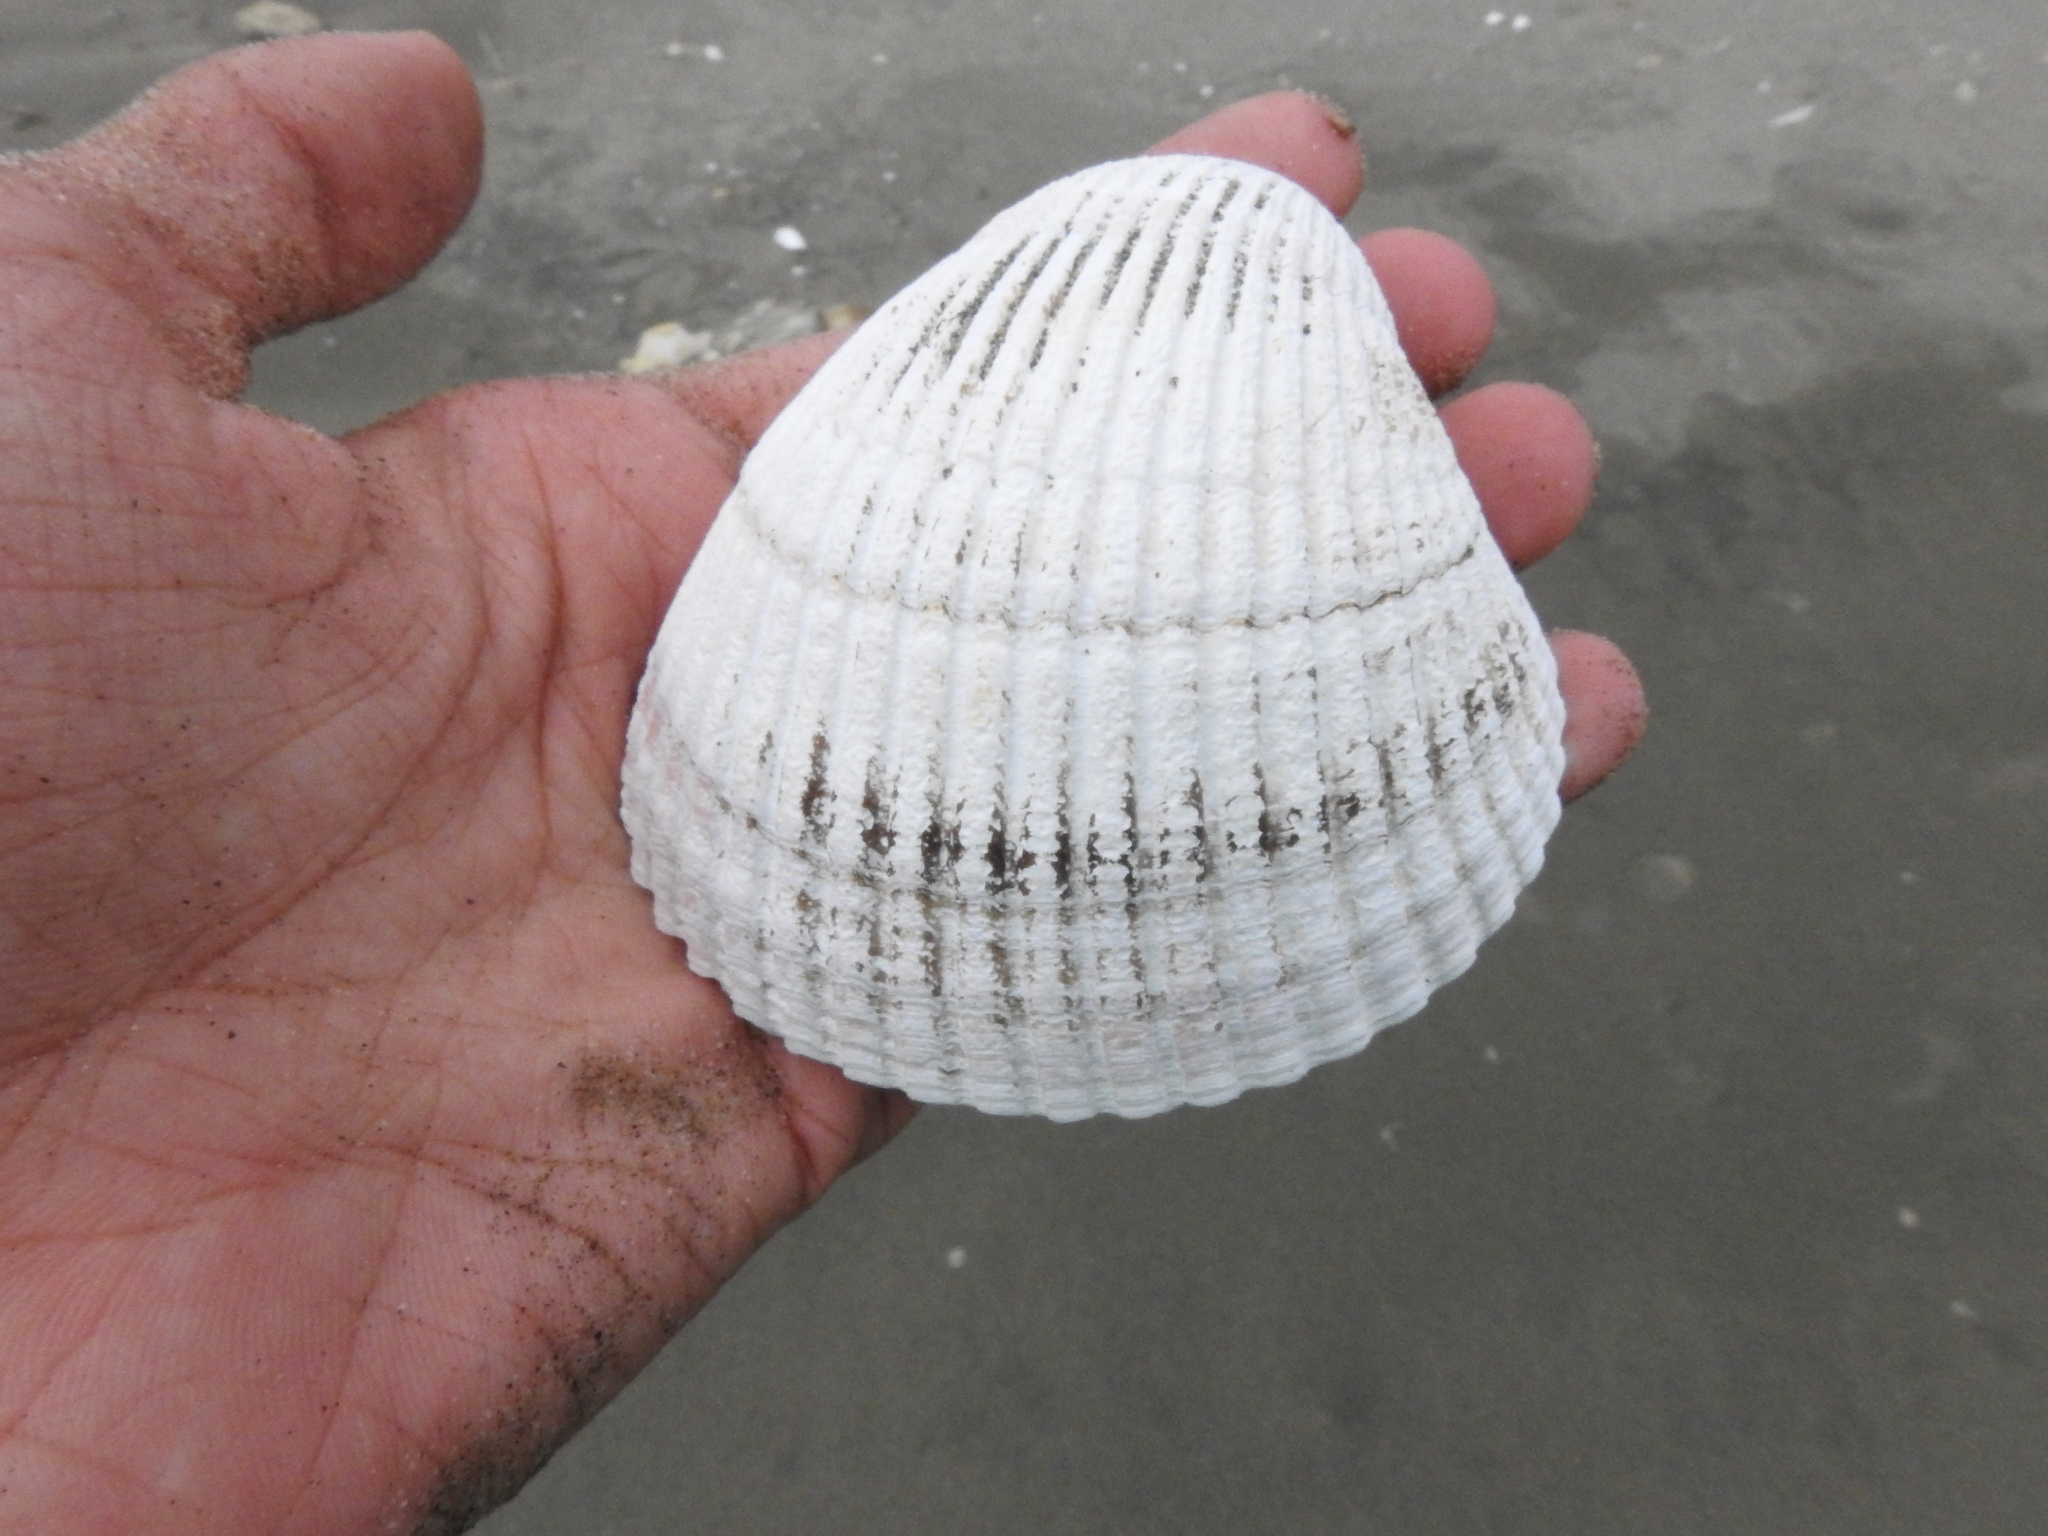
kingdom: Animalia
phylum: Mollusca
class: Bivalvia
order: Cardiida
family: Cardiidae
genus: Clinocardium
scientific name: Clinocardium nuttallii
